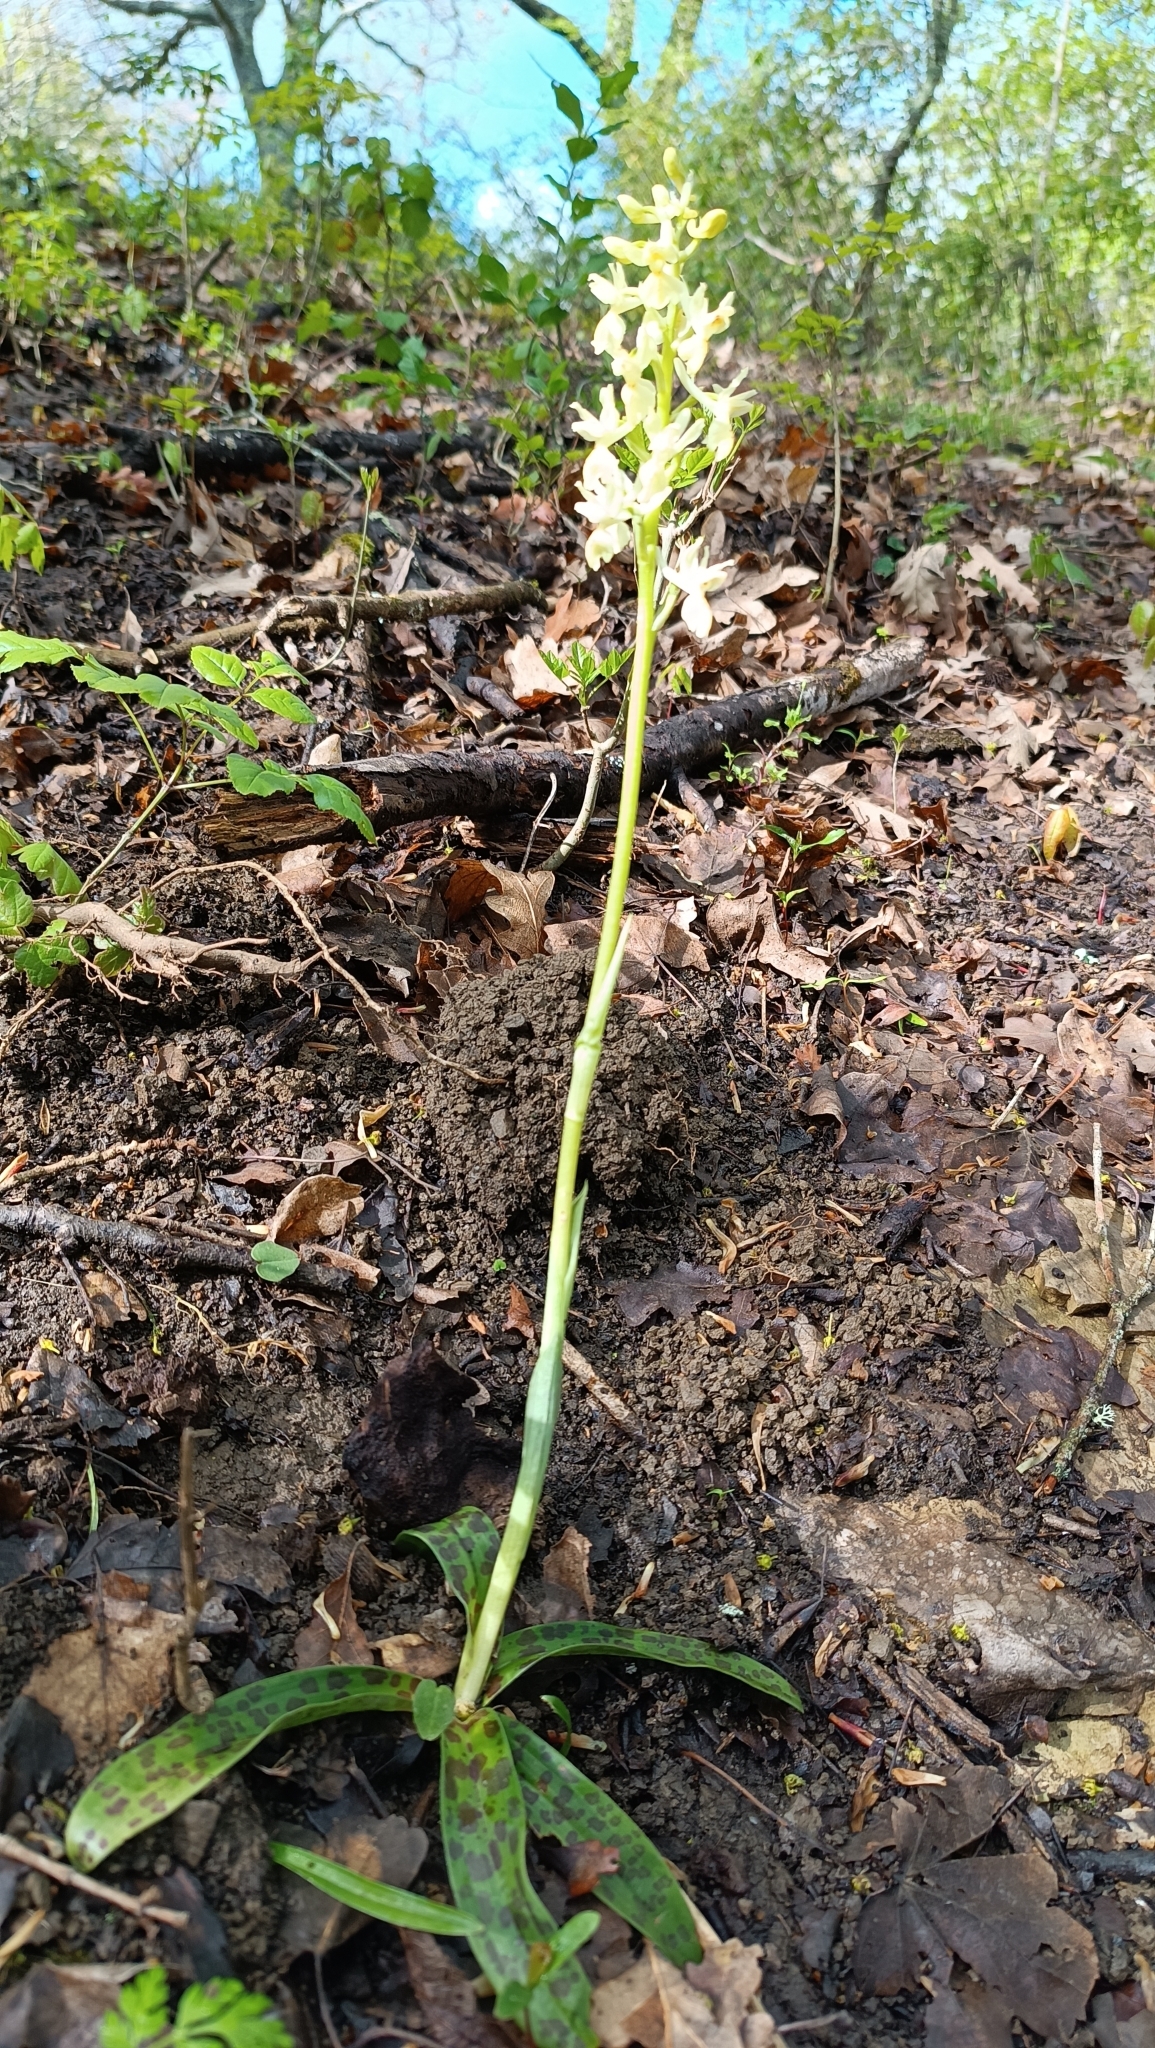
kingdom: Plantae
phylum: Tracheophyta
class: Liliopsida
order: Asparagales
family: Orchidaceae
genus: Orchis
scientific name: Orchis provincialis
